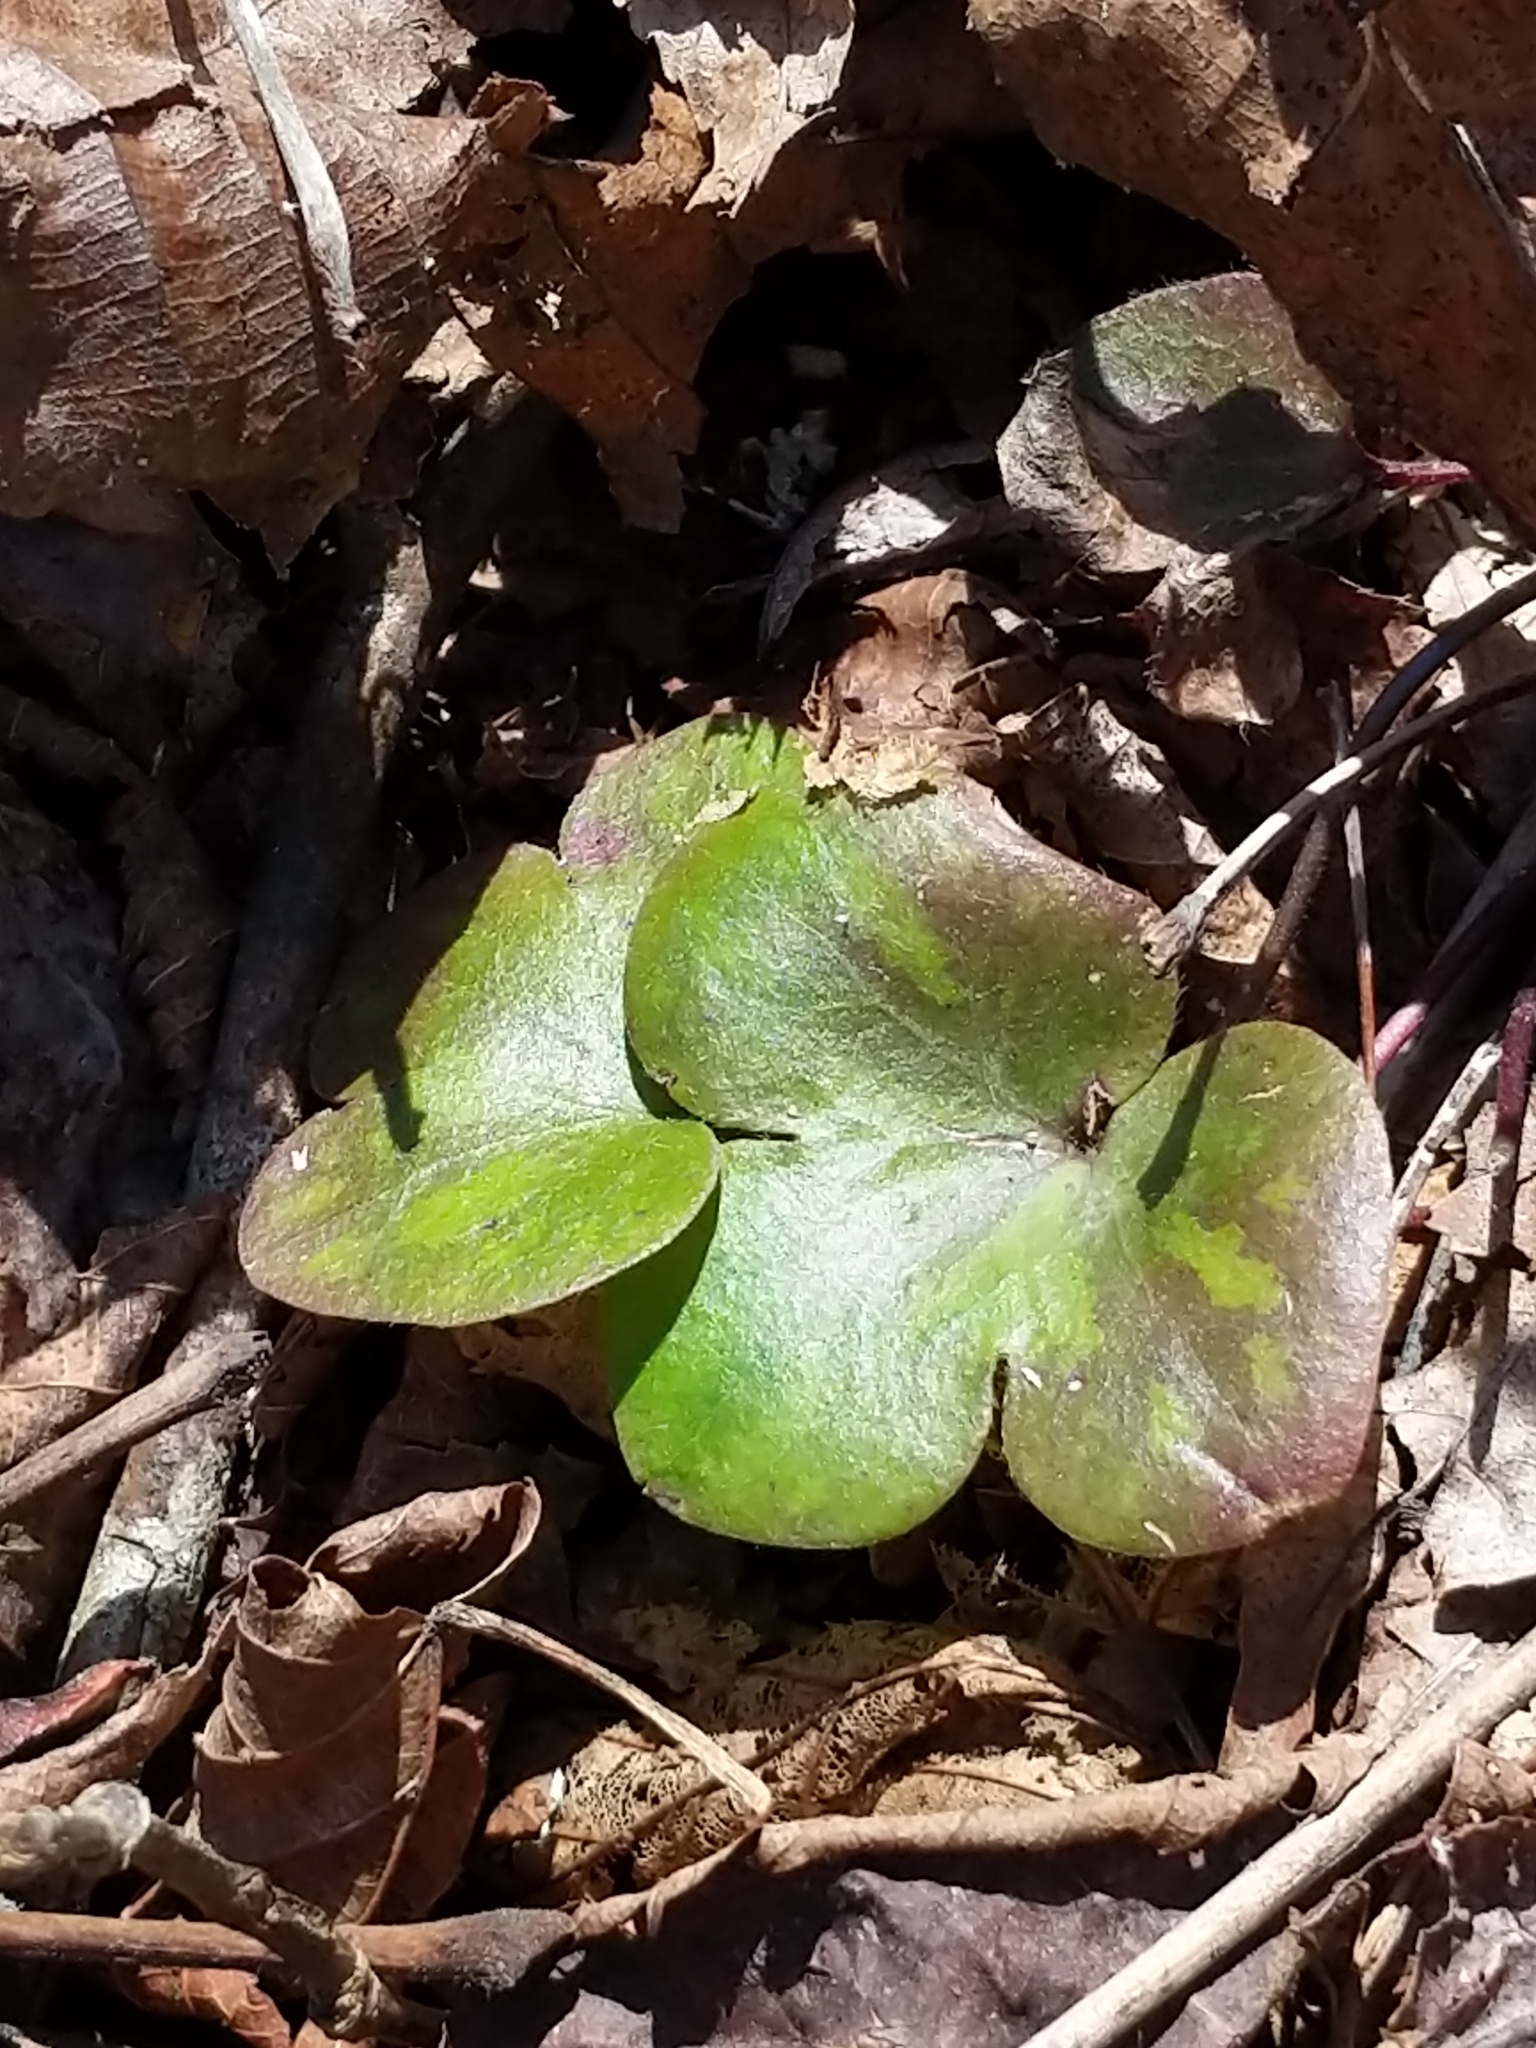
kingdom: Plantae
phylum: Tracheophyta
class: Magnoliopsida
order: Ranunculales
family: Ranunculaceae
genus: Hepatica
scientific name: Hepatica americana
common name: American hepatica
